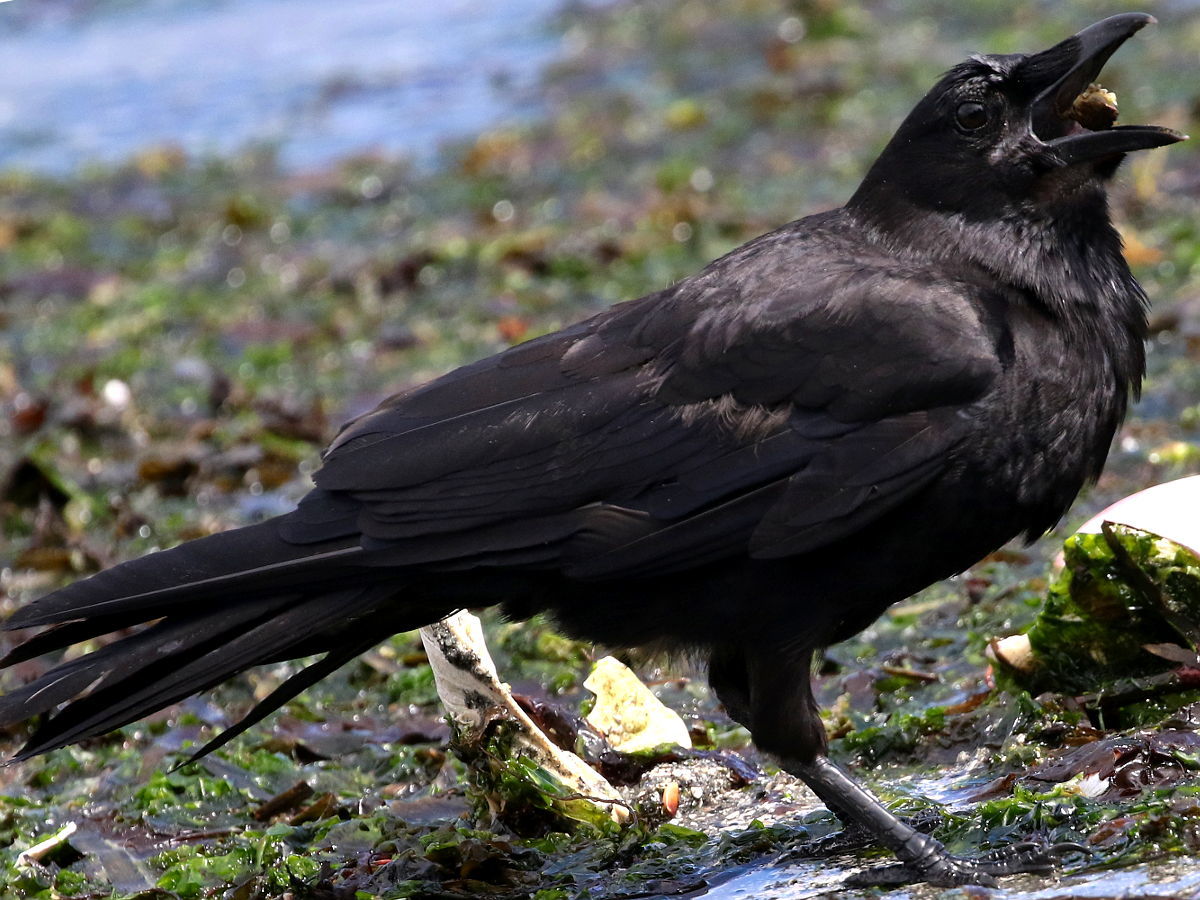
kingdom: Animalia
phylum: Chordata
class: Aves
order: Passeriformes
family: Corvidae
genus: Corvus
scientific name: Corvus brachyrhynchos
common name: American crow
